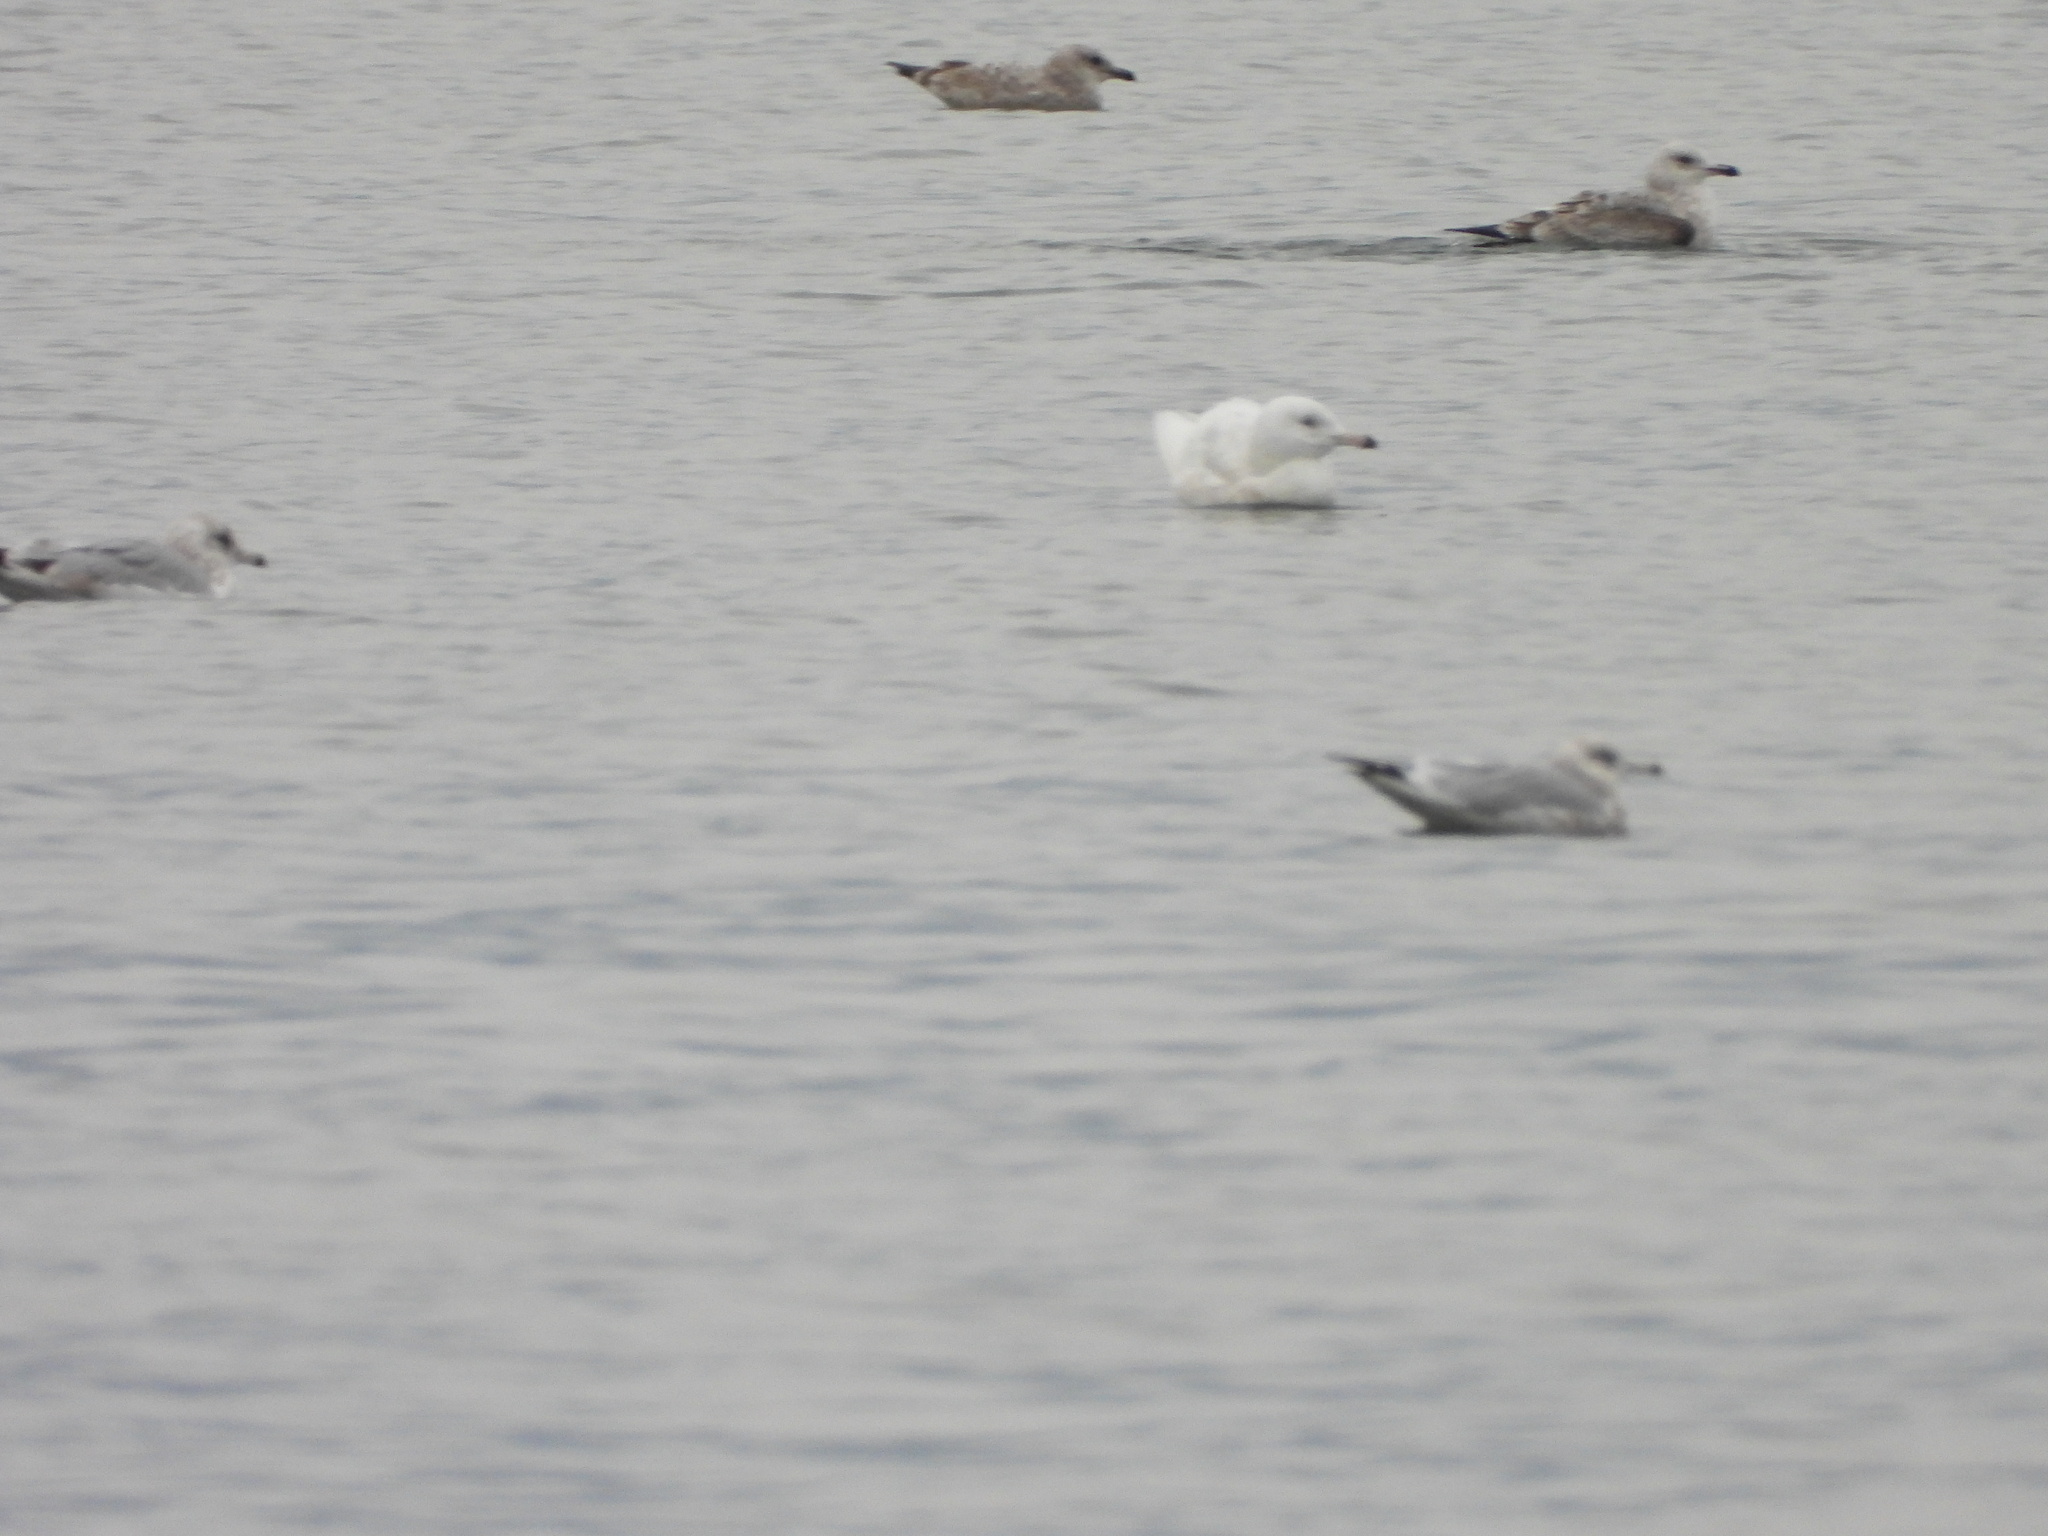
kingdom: Animalia
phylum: Chordata
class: Aves
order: Charadriiformes
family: Laridae
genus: Larus
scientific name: Larus hyperboreus
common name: Glaucous gull
